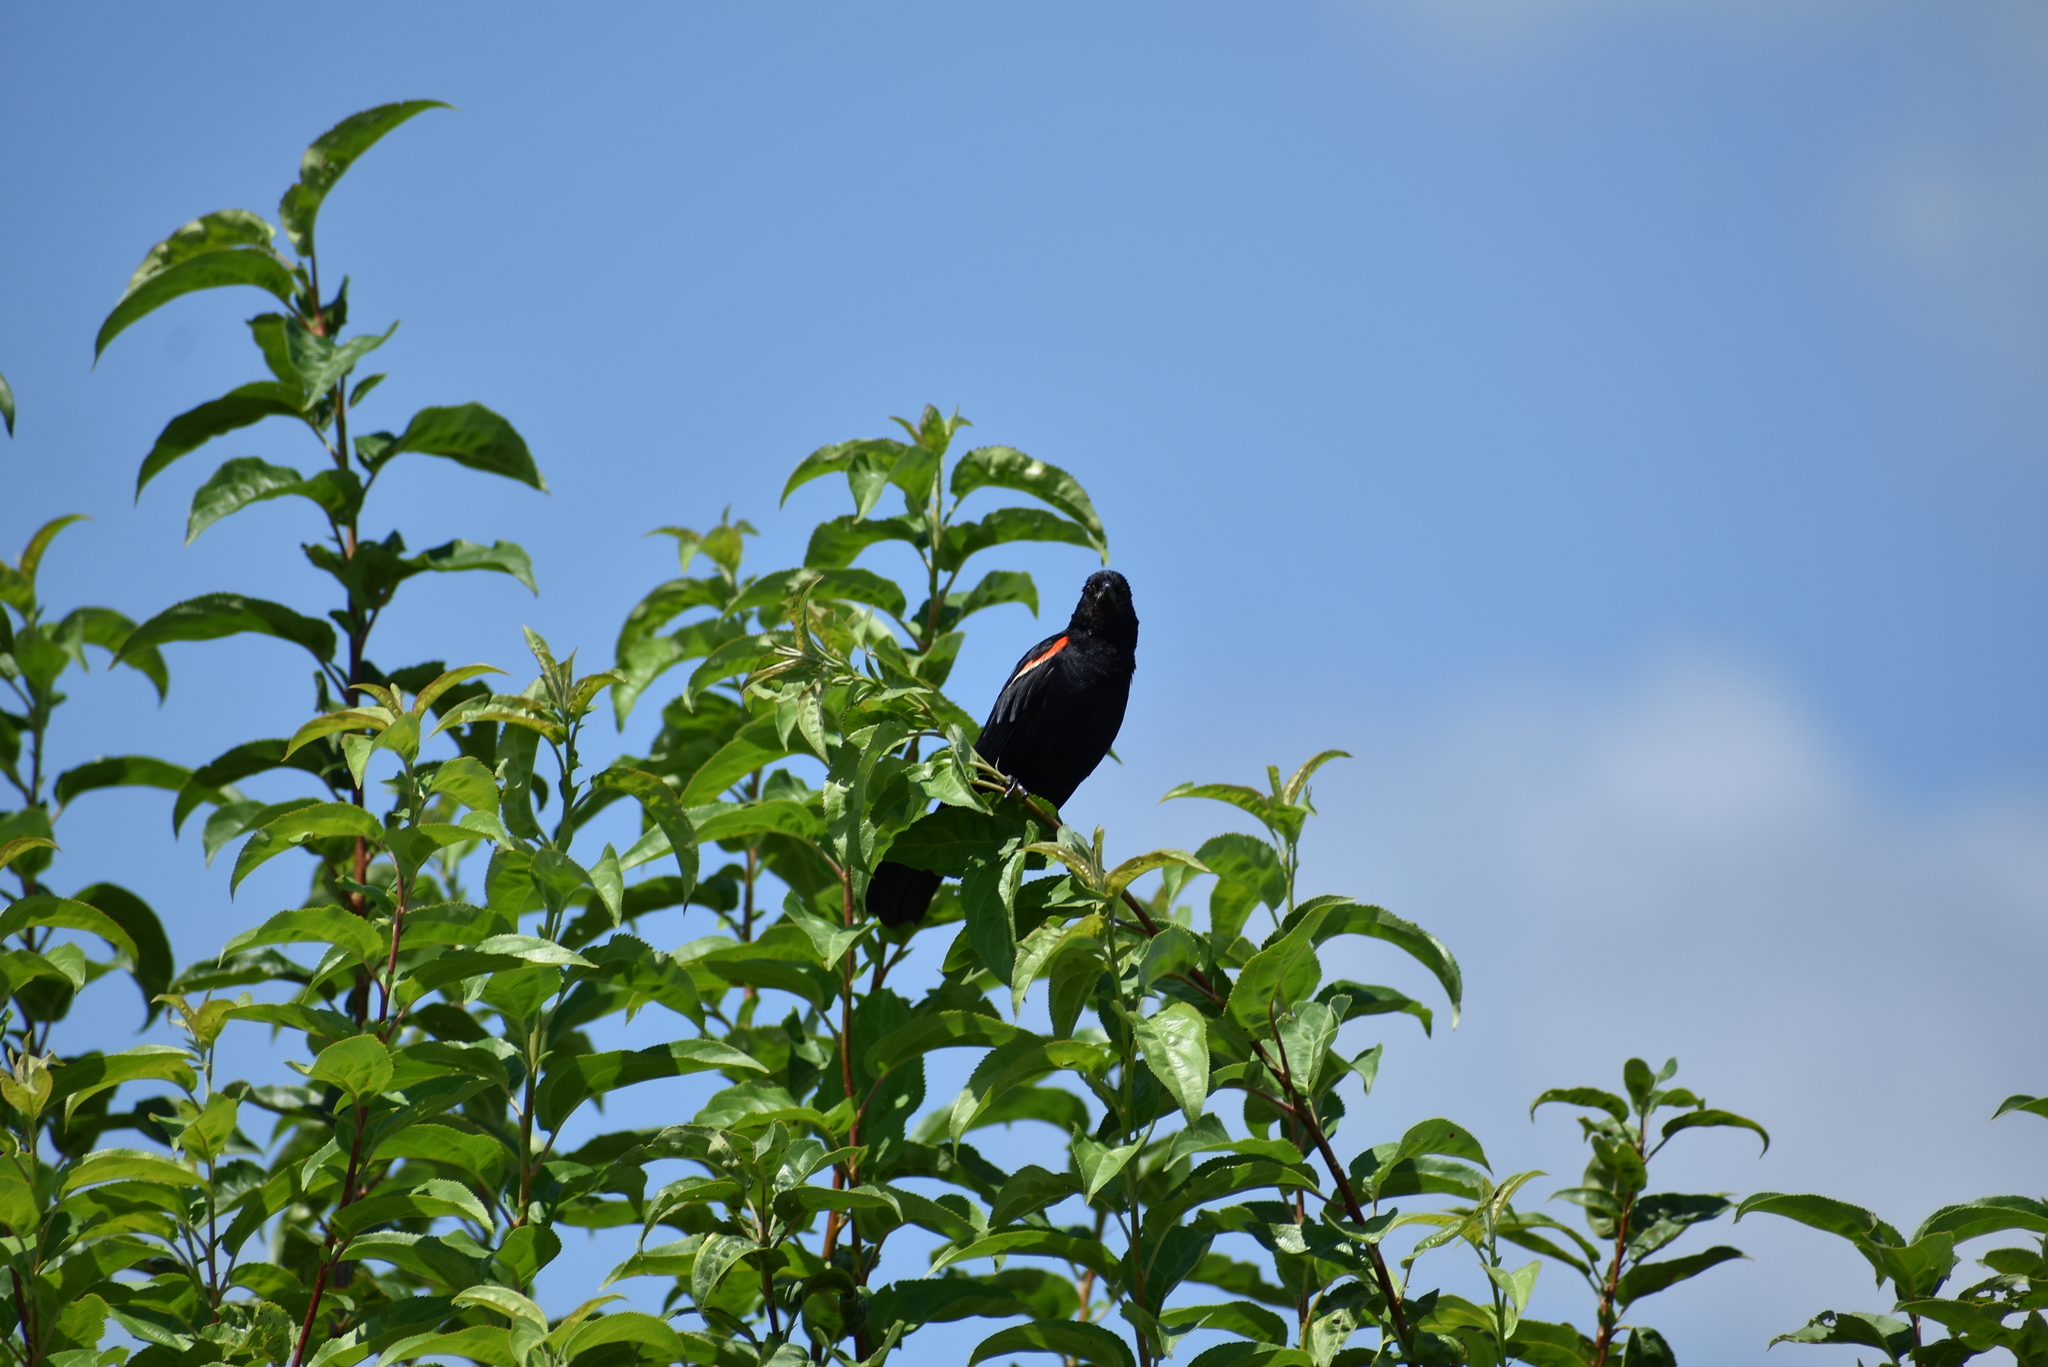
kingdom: Animalia
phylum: Chordata
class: Aves
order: Passeriformes
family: Icteridae
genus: Agelaius
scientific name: Agelaius phoeniceus
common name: Red-winged blackbird
